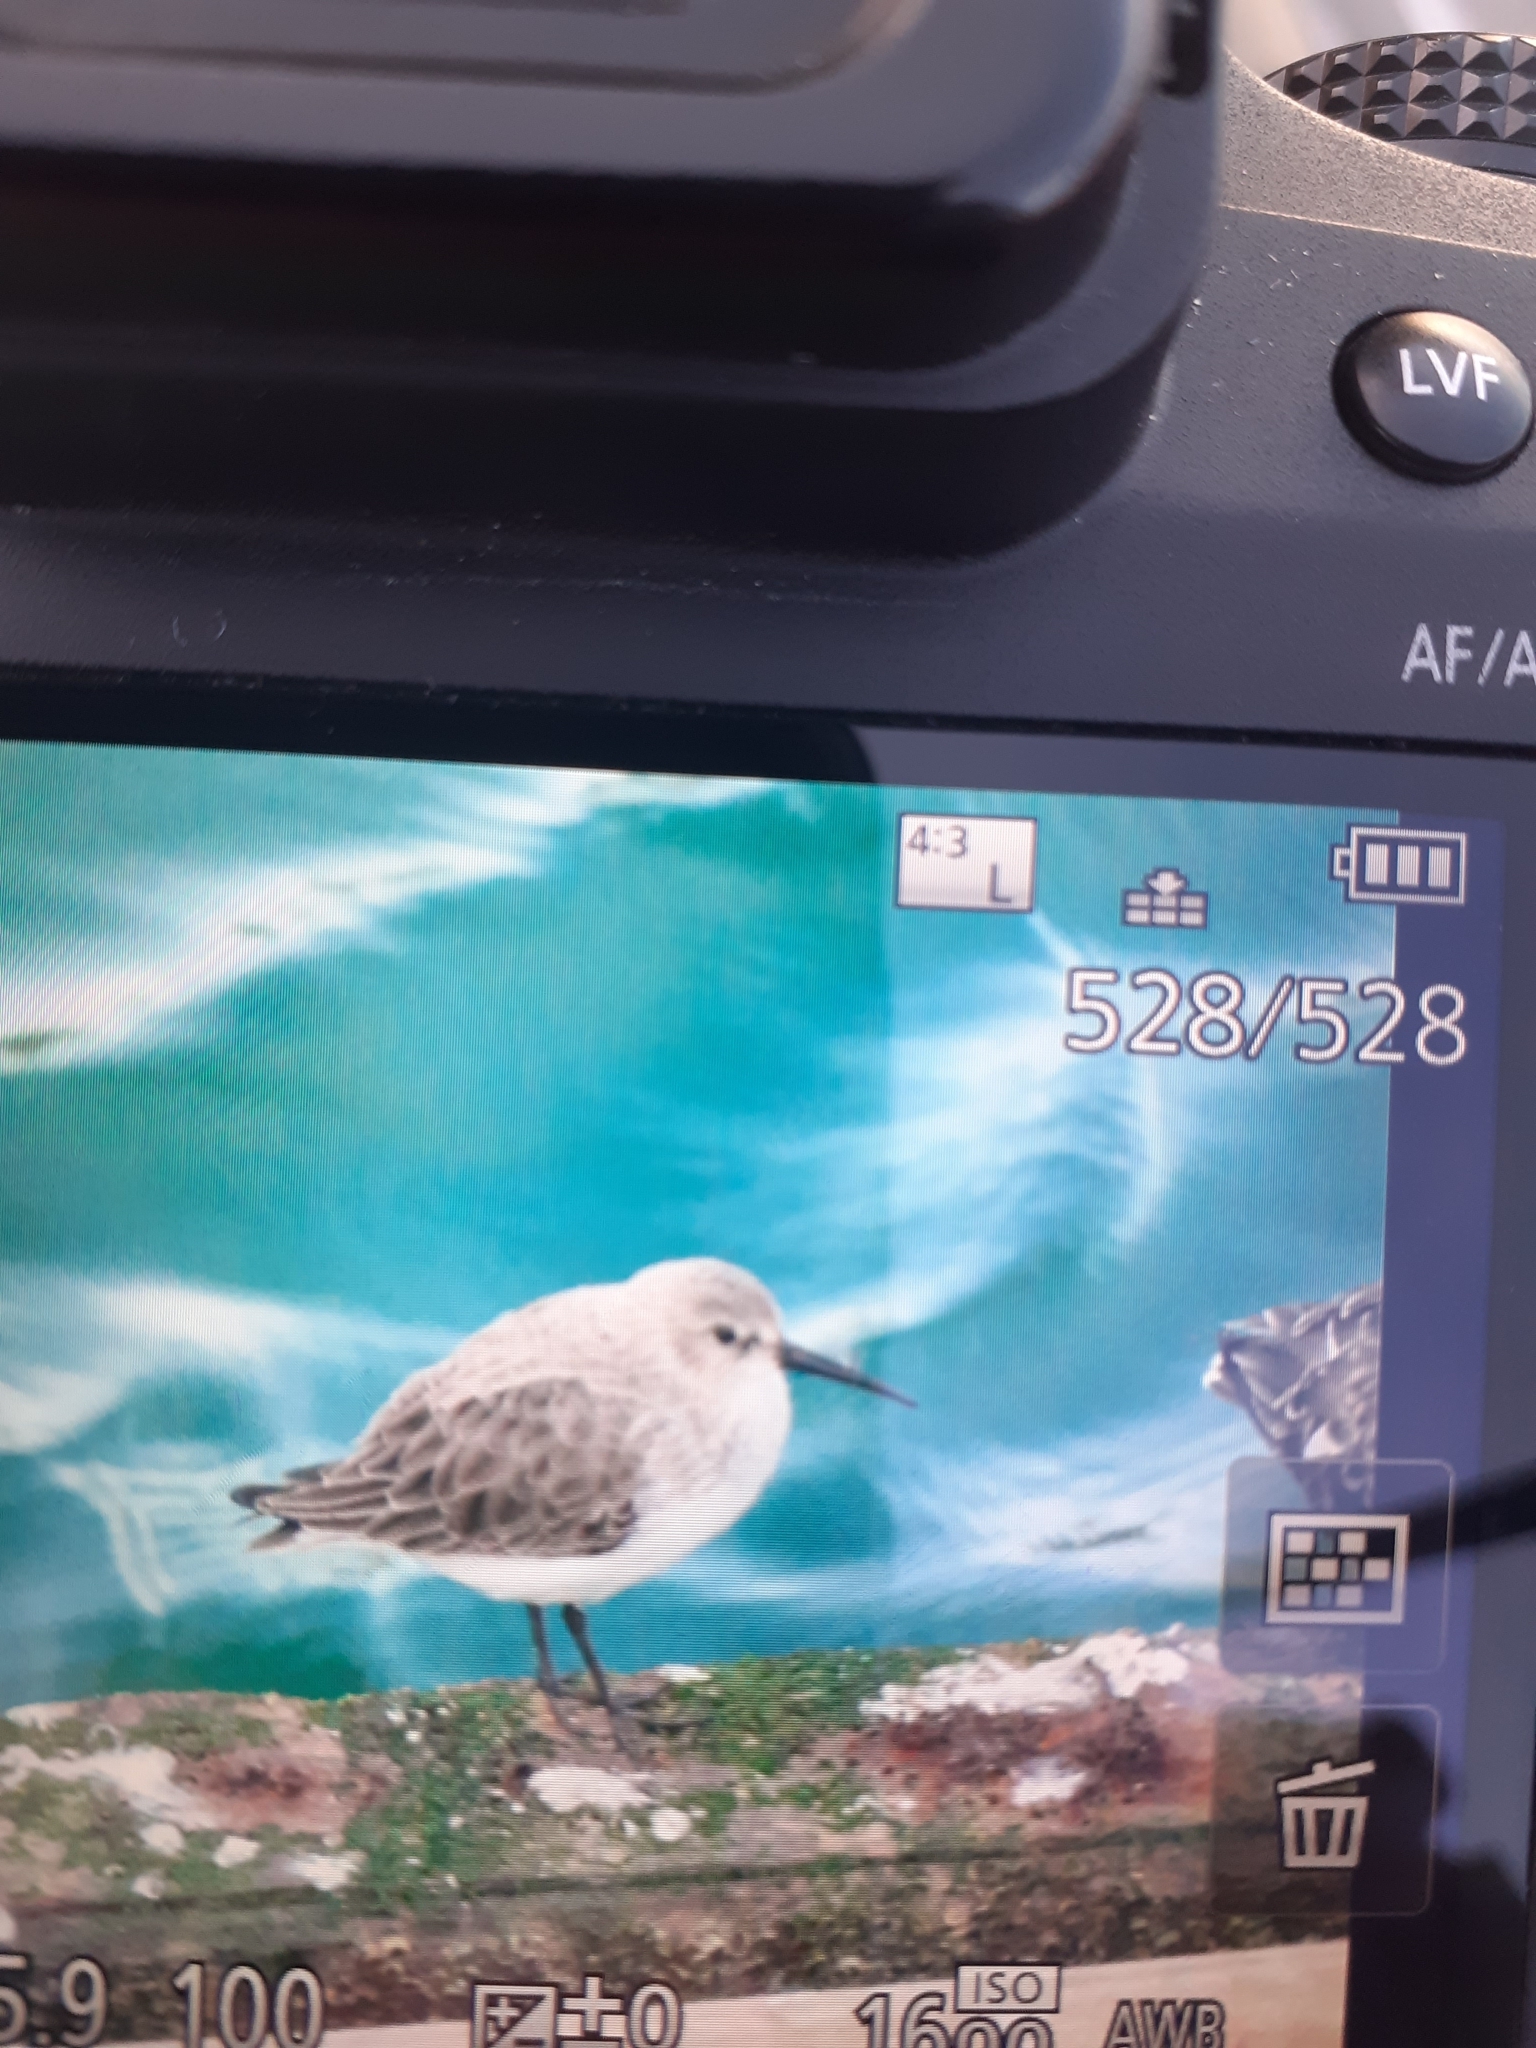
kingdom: Animalia
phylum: Chordata
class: Aves
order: Charadriiformes
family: Scolopacidae
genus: Calidris
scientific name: Calidris alpina
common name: Dunlin
